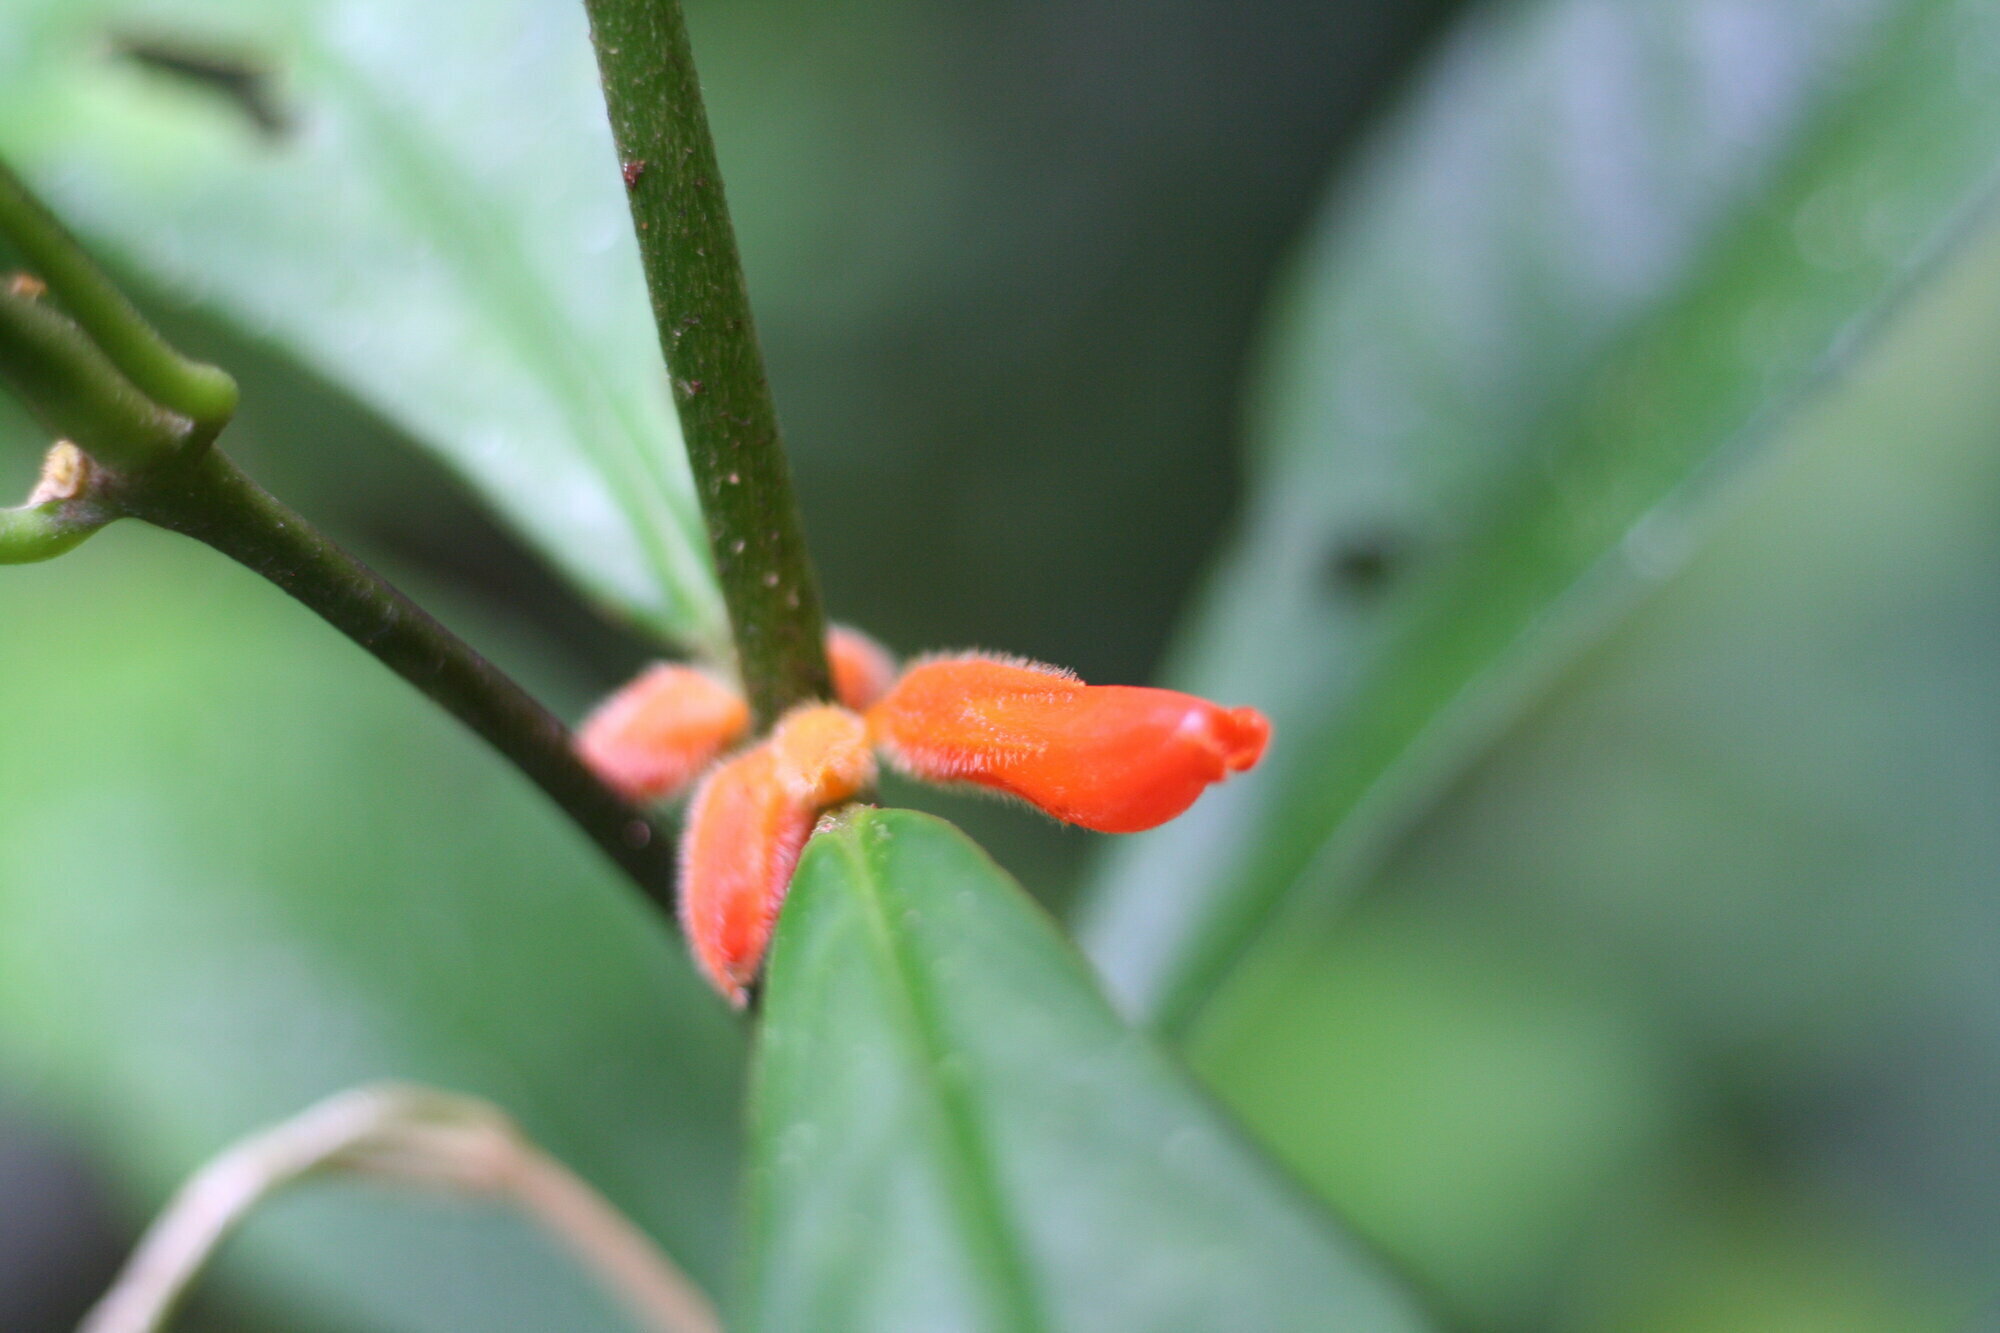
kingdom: Plantae
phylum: Tracheophyta
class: Magnoliopsida
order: Lamiales
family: Gesneriaceae
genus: Besleria
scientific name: Besleria aggregata
